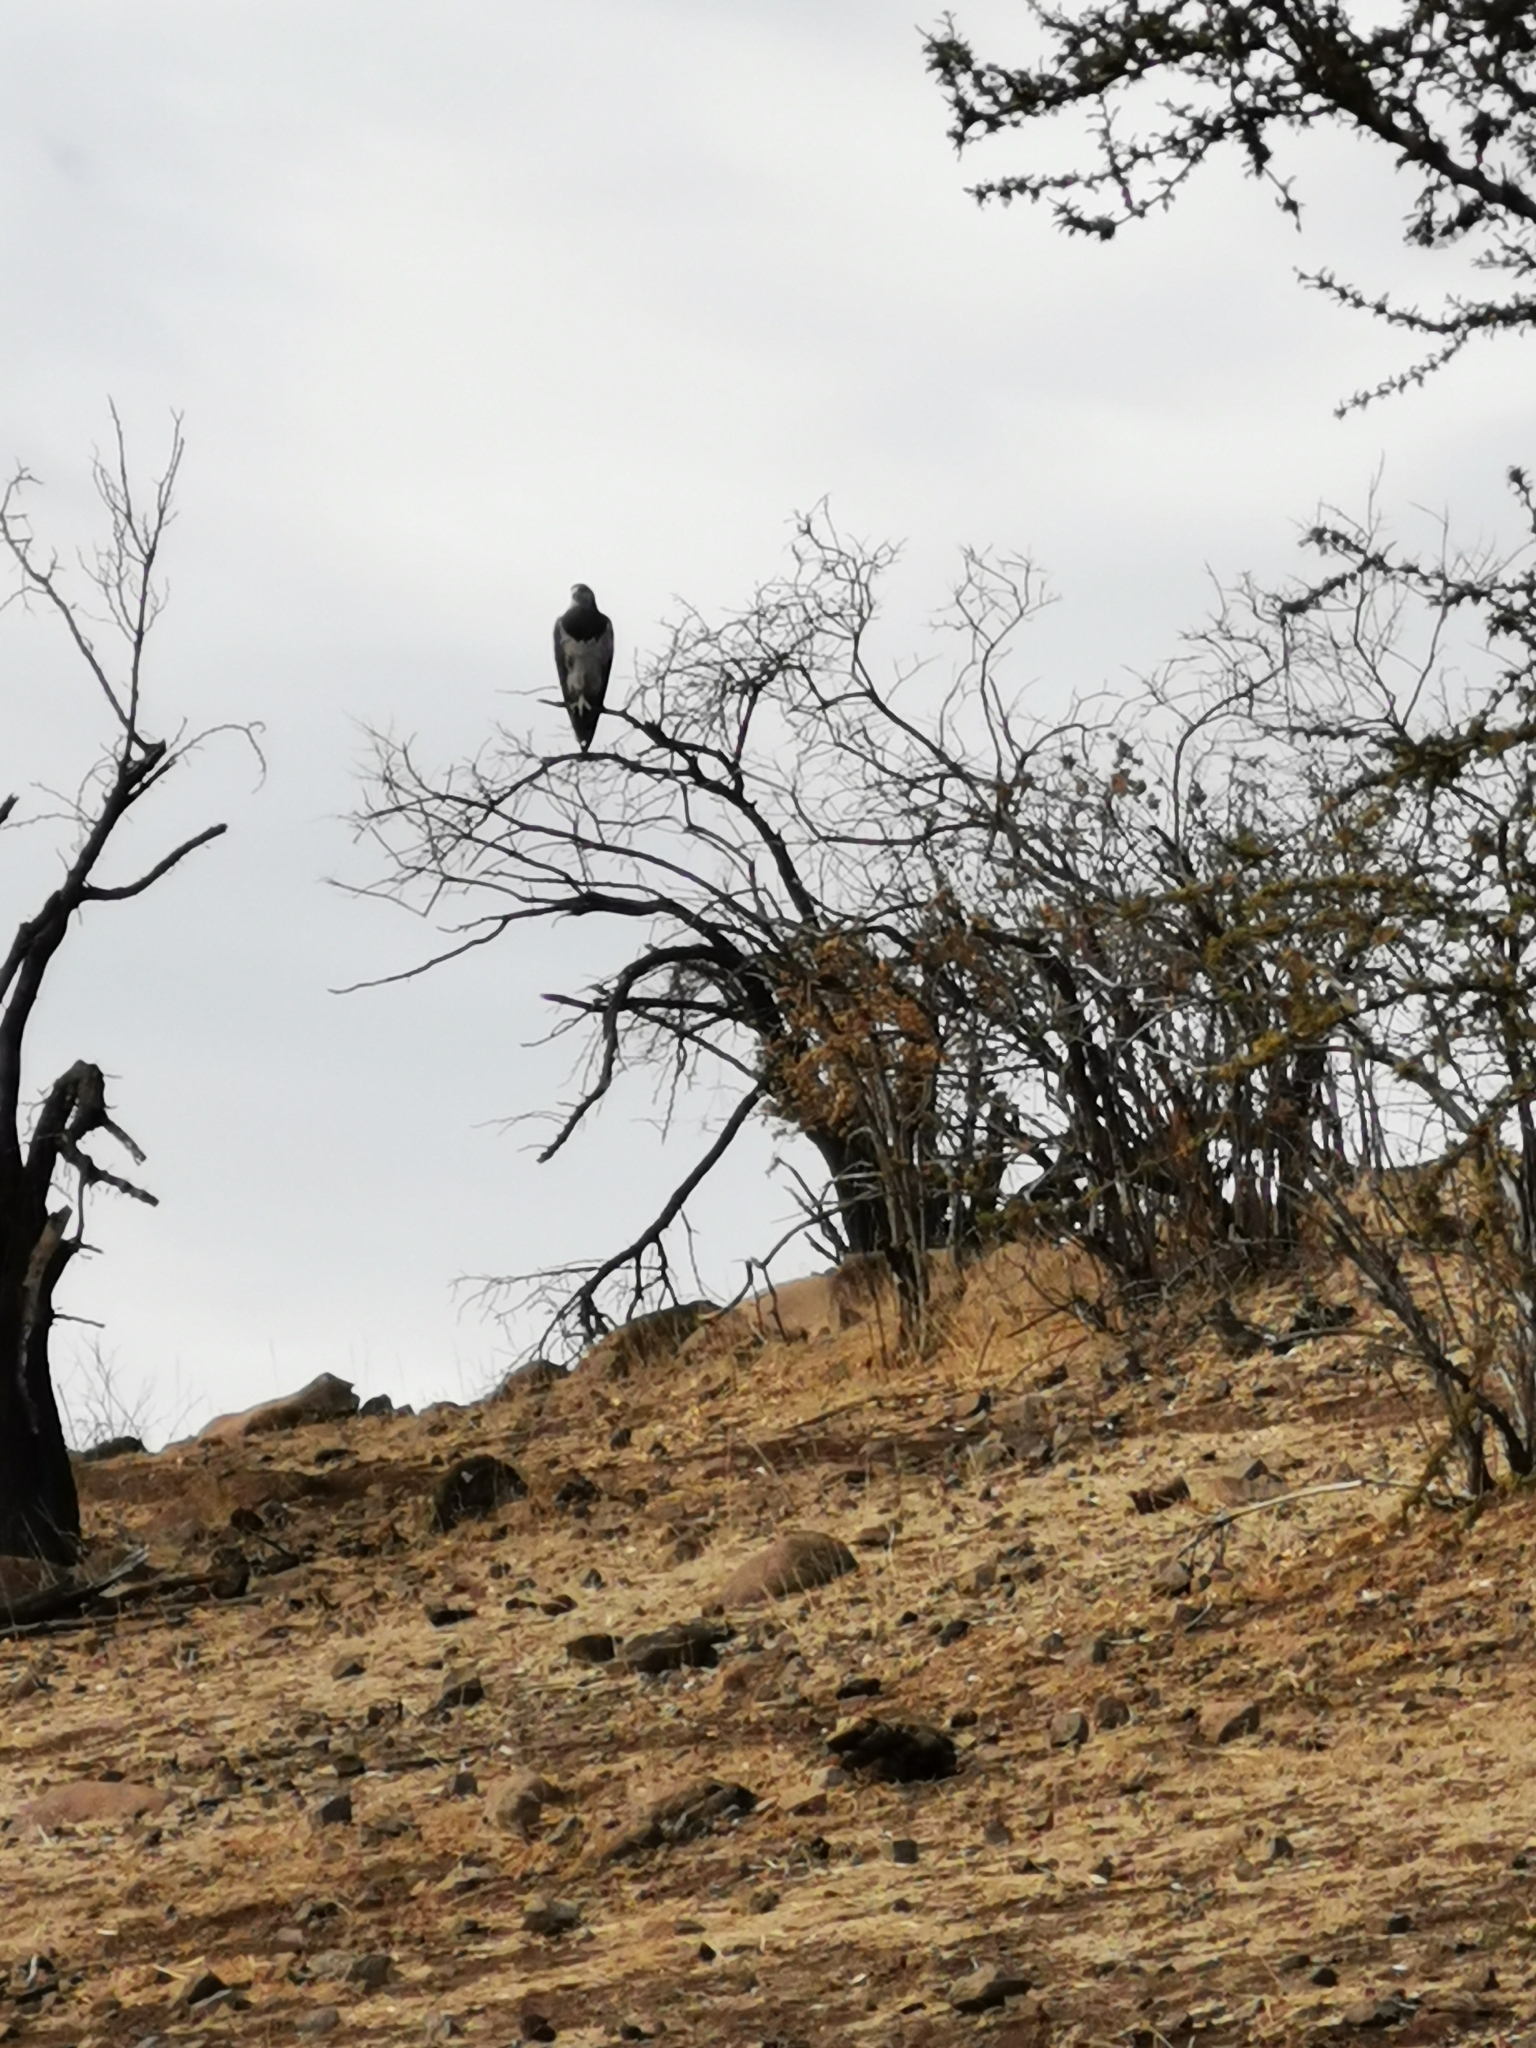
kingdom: Animalia
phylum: Chordata
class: Aves
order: Accipitriformes
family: Accipitridae
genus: Geranoaetus
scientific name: Geranoaetus melanoleucus
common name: Black-chested buzzard-eagle
